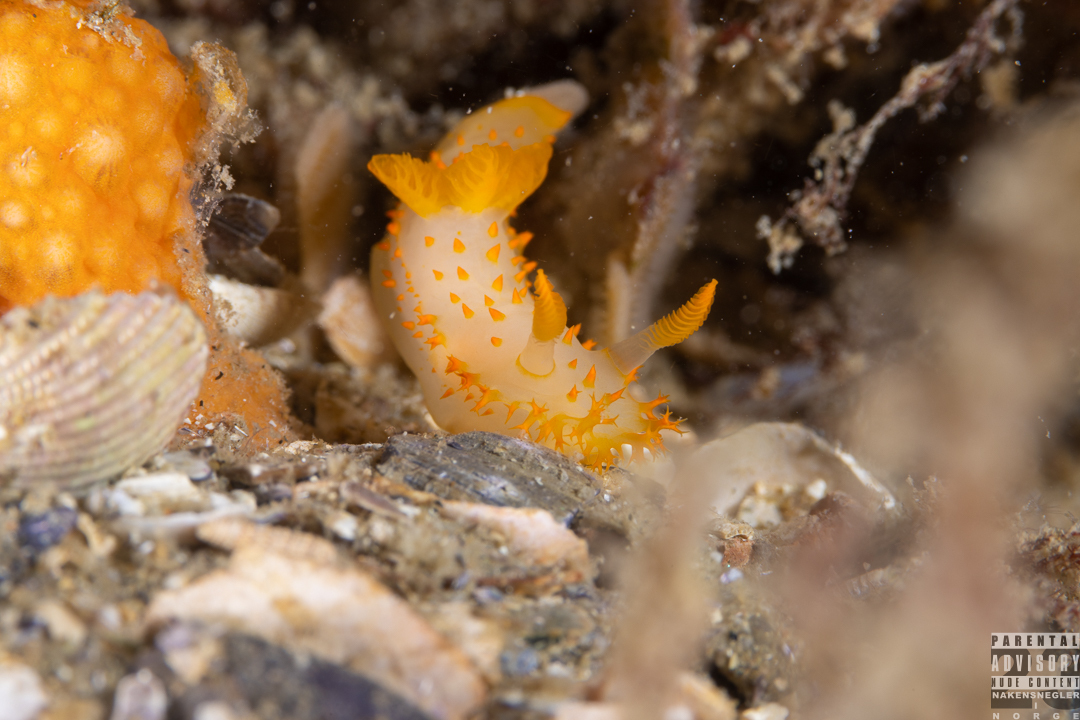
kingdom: Animalia
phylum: Mollusca
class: Gastropoda
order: Nudibranchia
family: Polyceridae
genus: Crimora
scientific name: Crimora papillata
